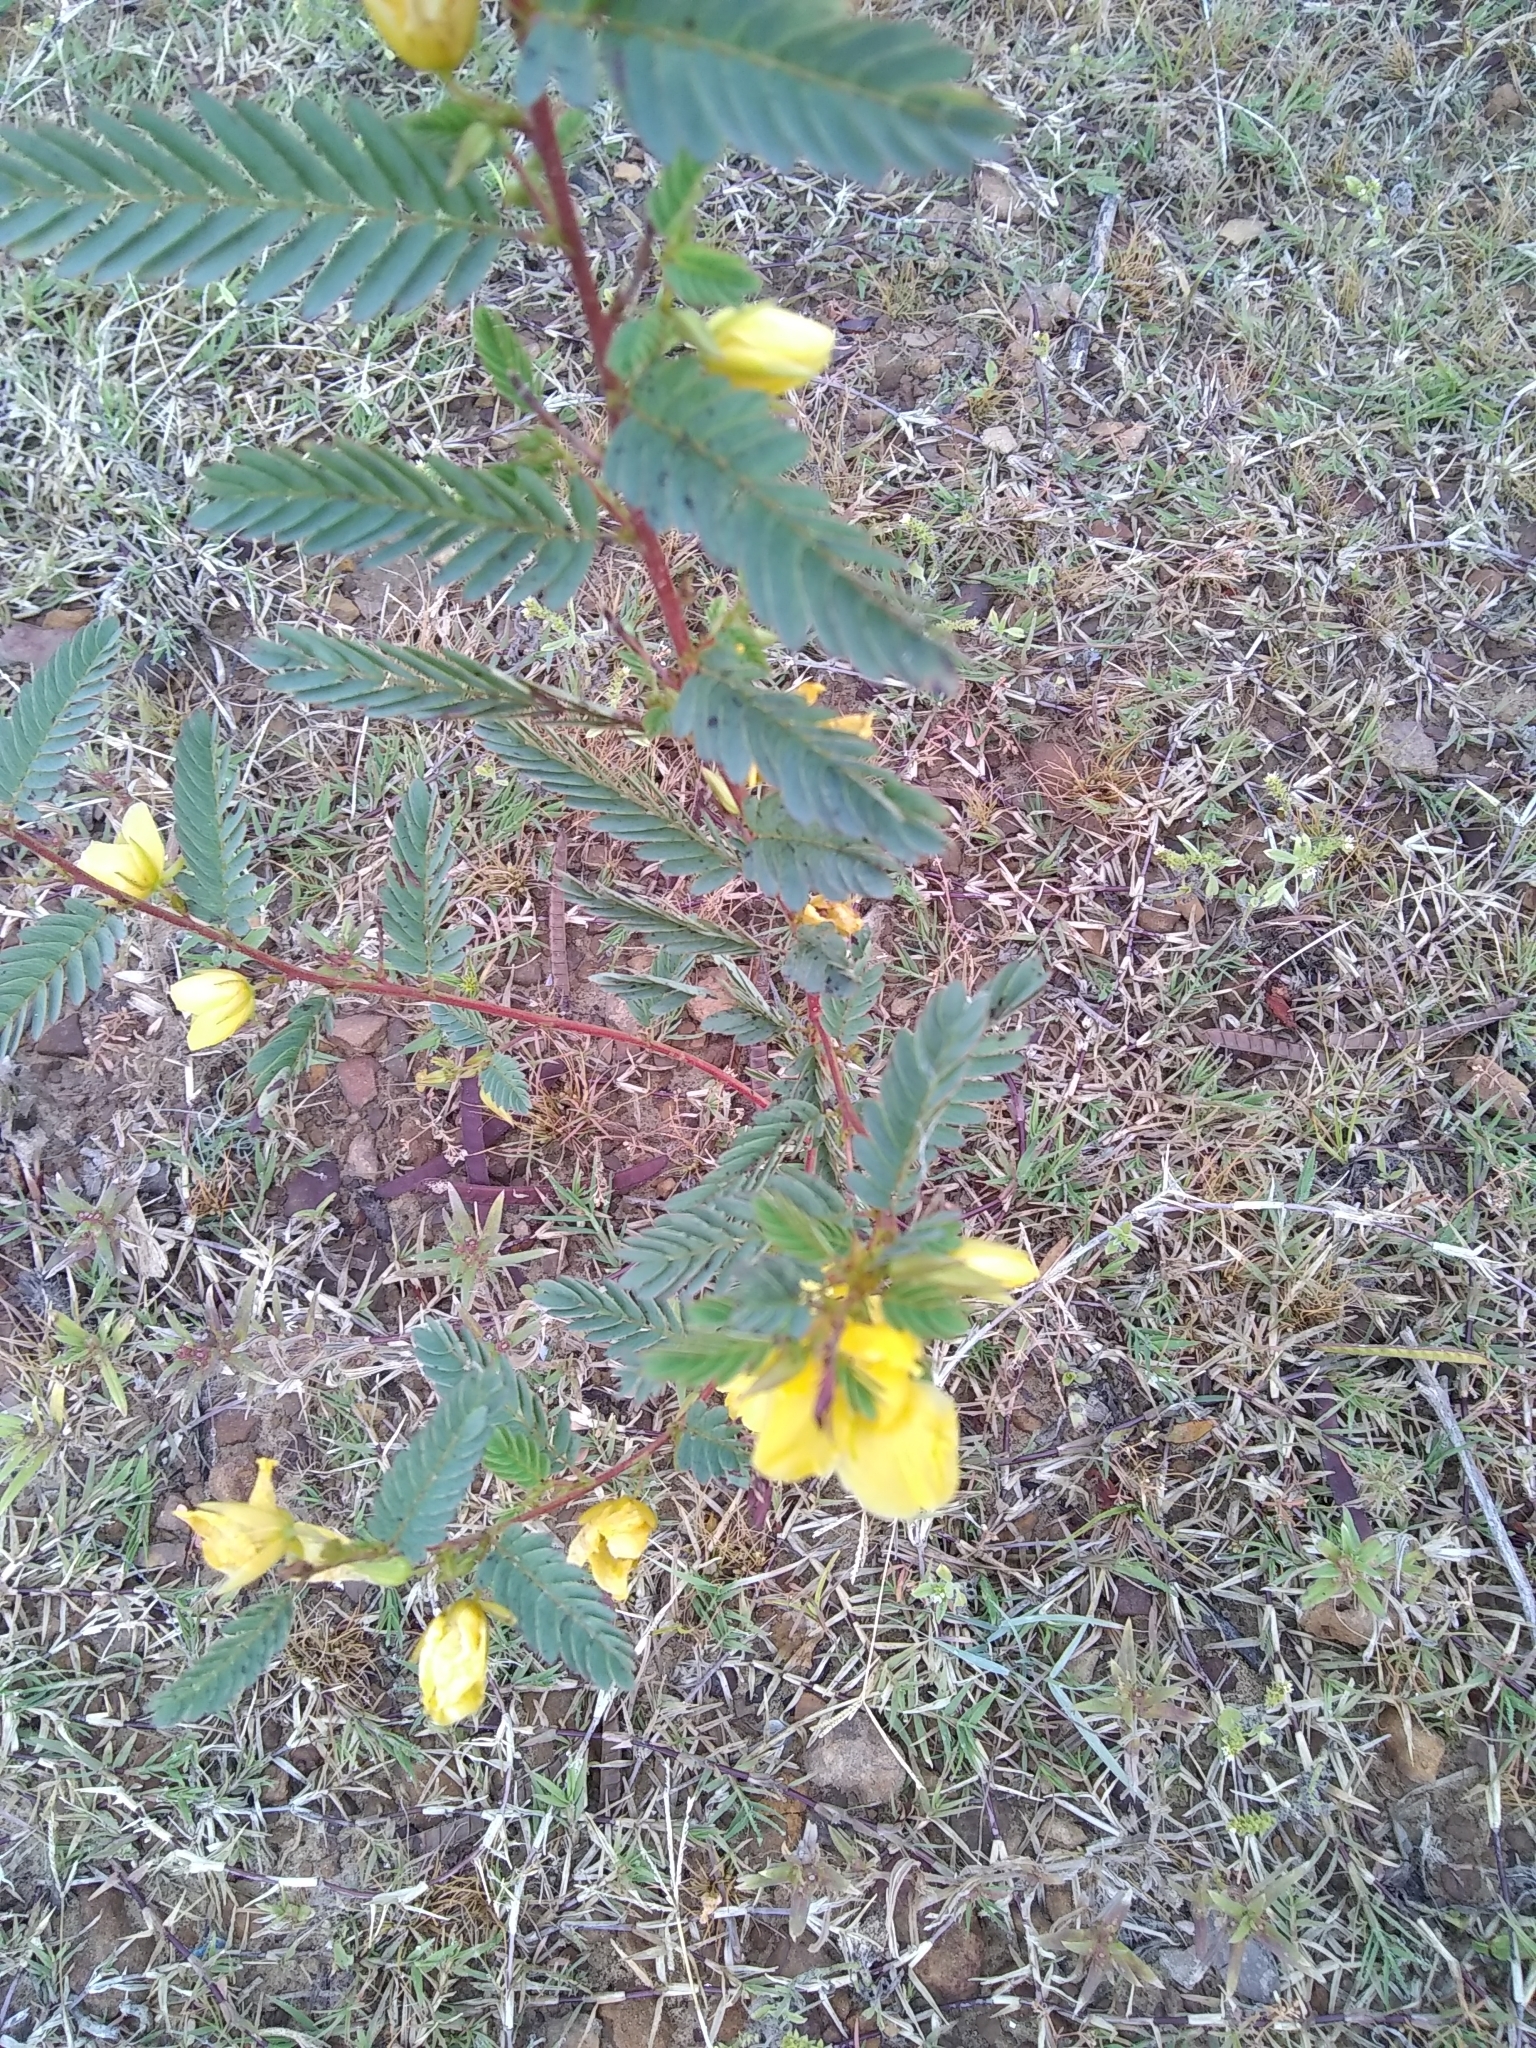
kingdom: Plantae
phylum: Tracheophyta
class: Magnoliopsida
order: Fabales
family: Fabaceae
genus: Chamaecrista
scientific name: Chamaecrista fasciculata
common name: Golden cassia
